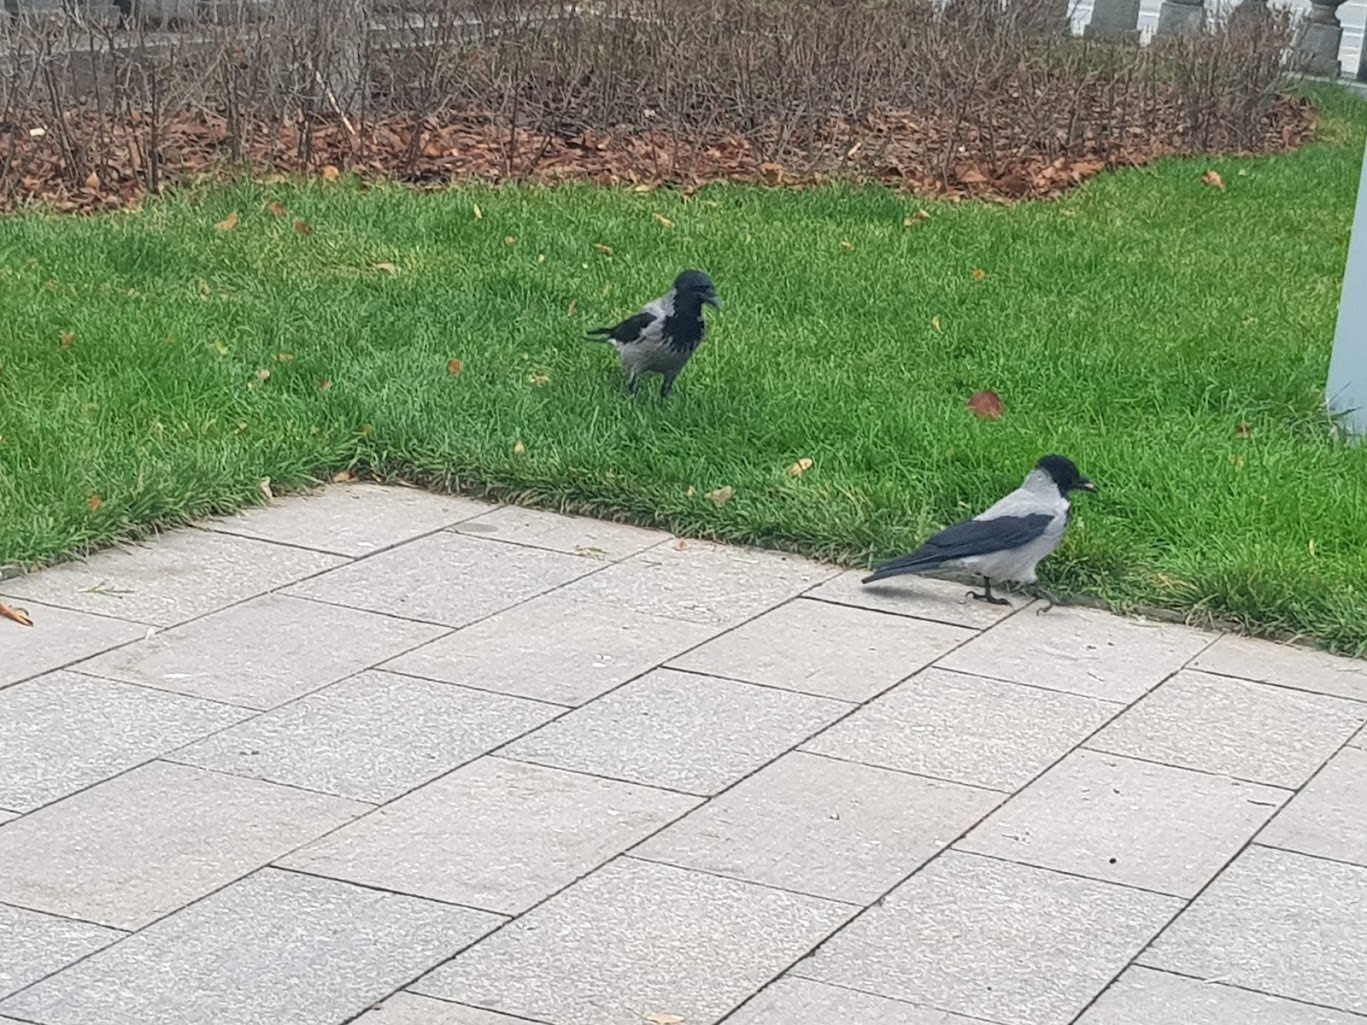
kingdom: Animalia
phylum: Chordata
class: Aves
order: Passeriformes
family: Corvidae
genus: Corvus
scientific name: Corvus cornix
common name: Hooded crow
